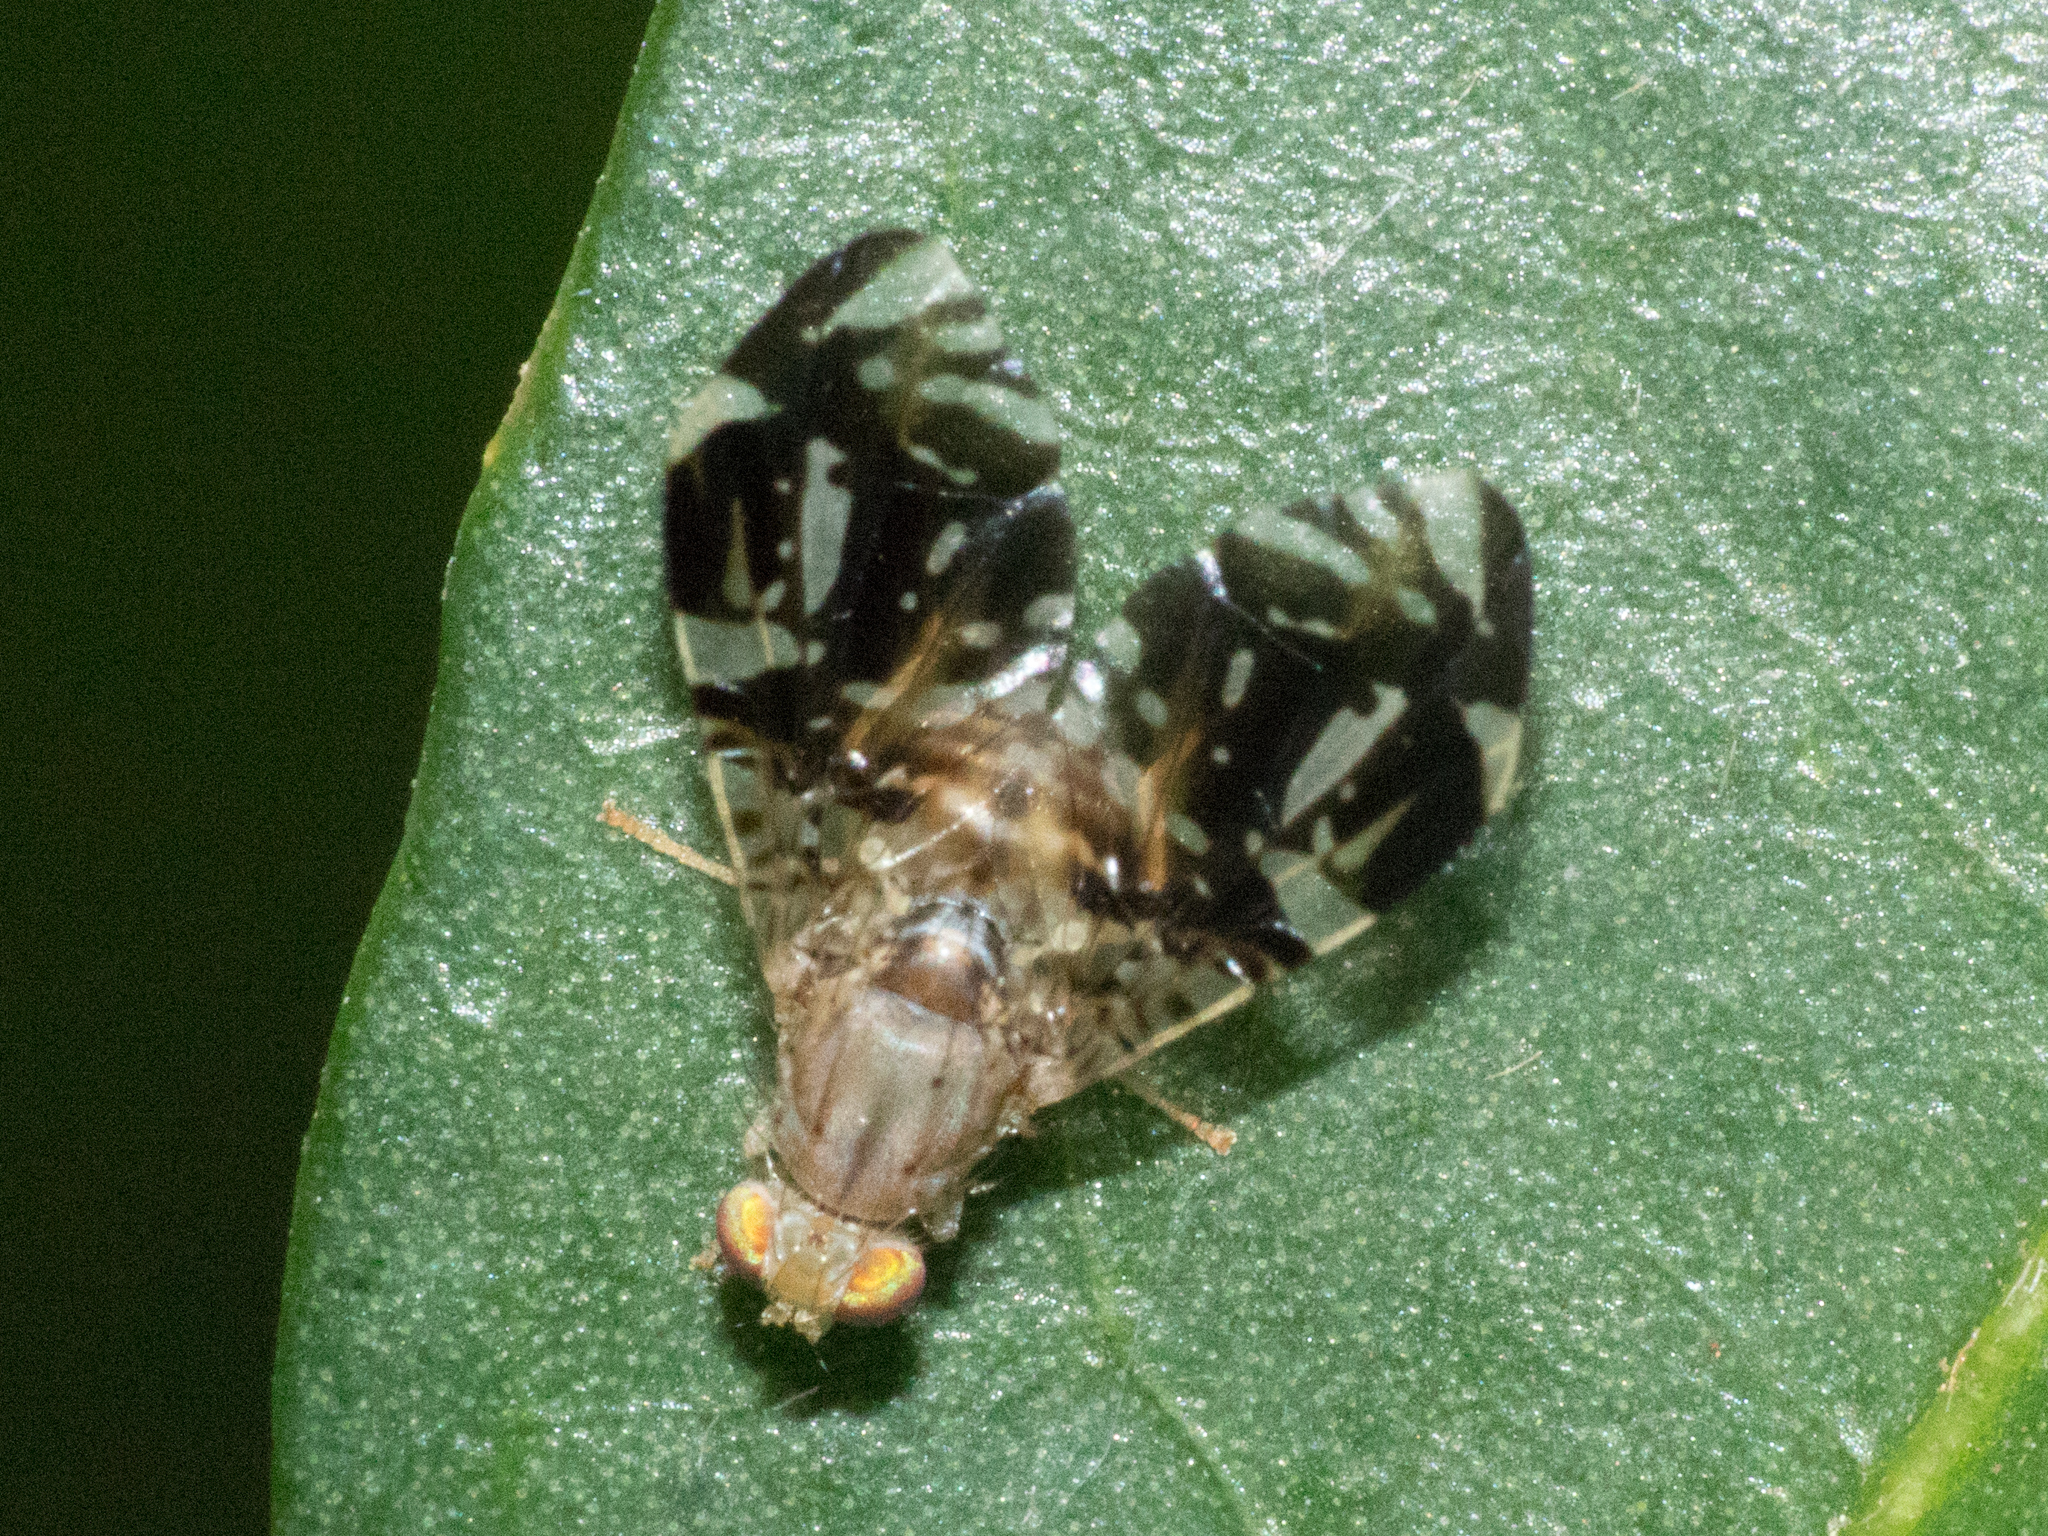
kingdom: Animalia
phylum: Arthropoda
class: Insecta
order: Diptera
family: Tephritidae
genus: Neotaracia
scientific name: Neotaracia plaumanni
